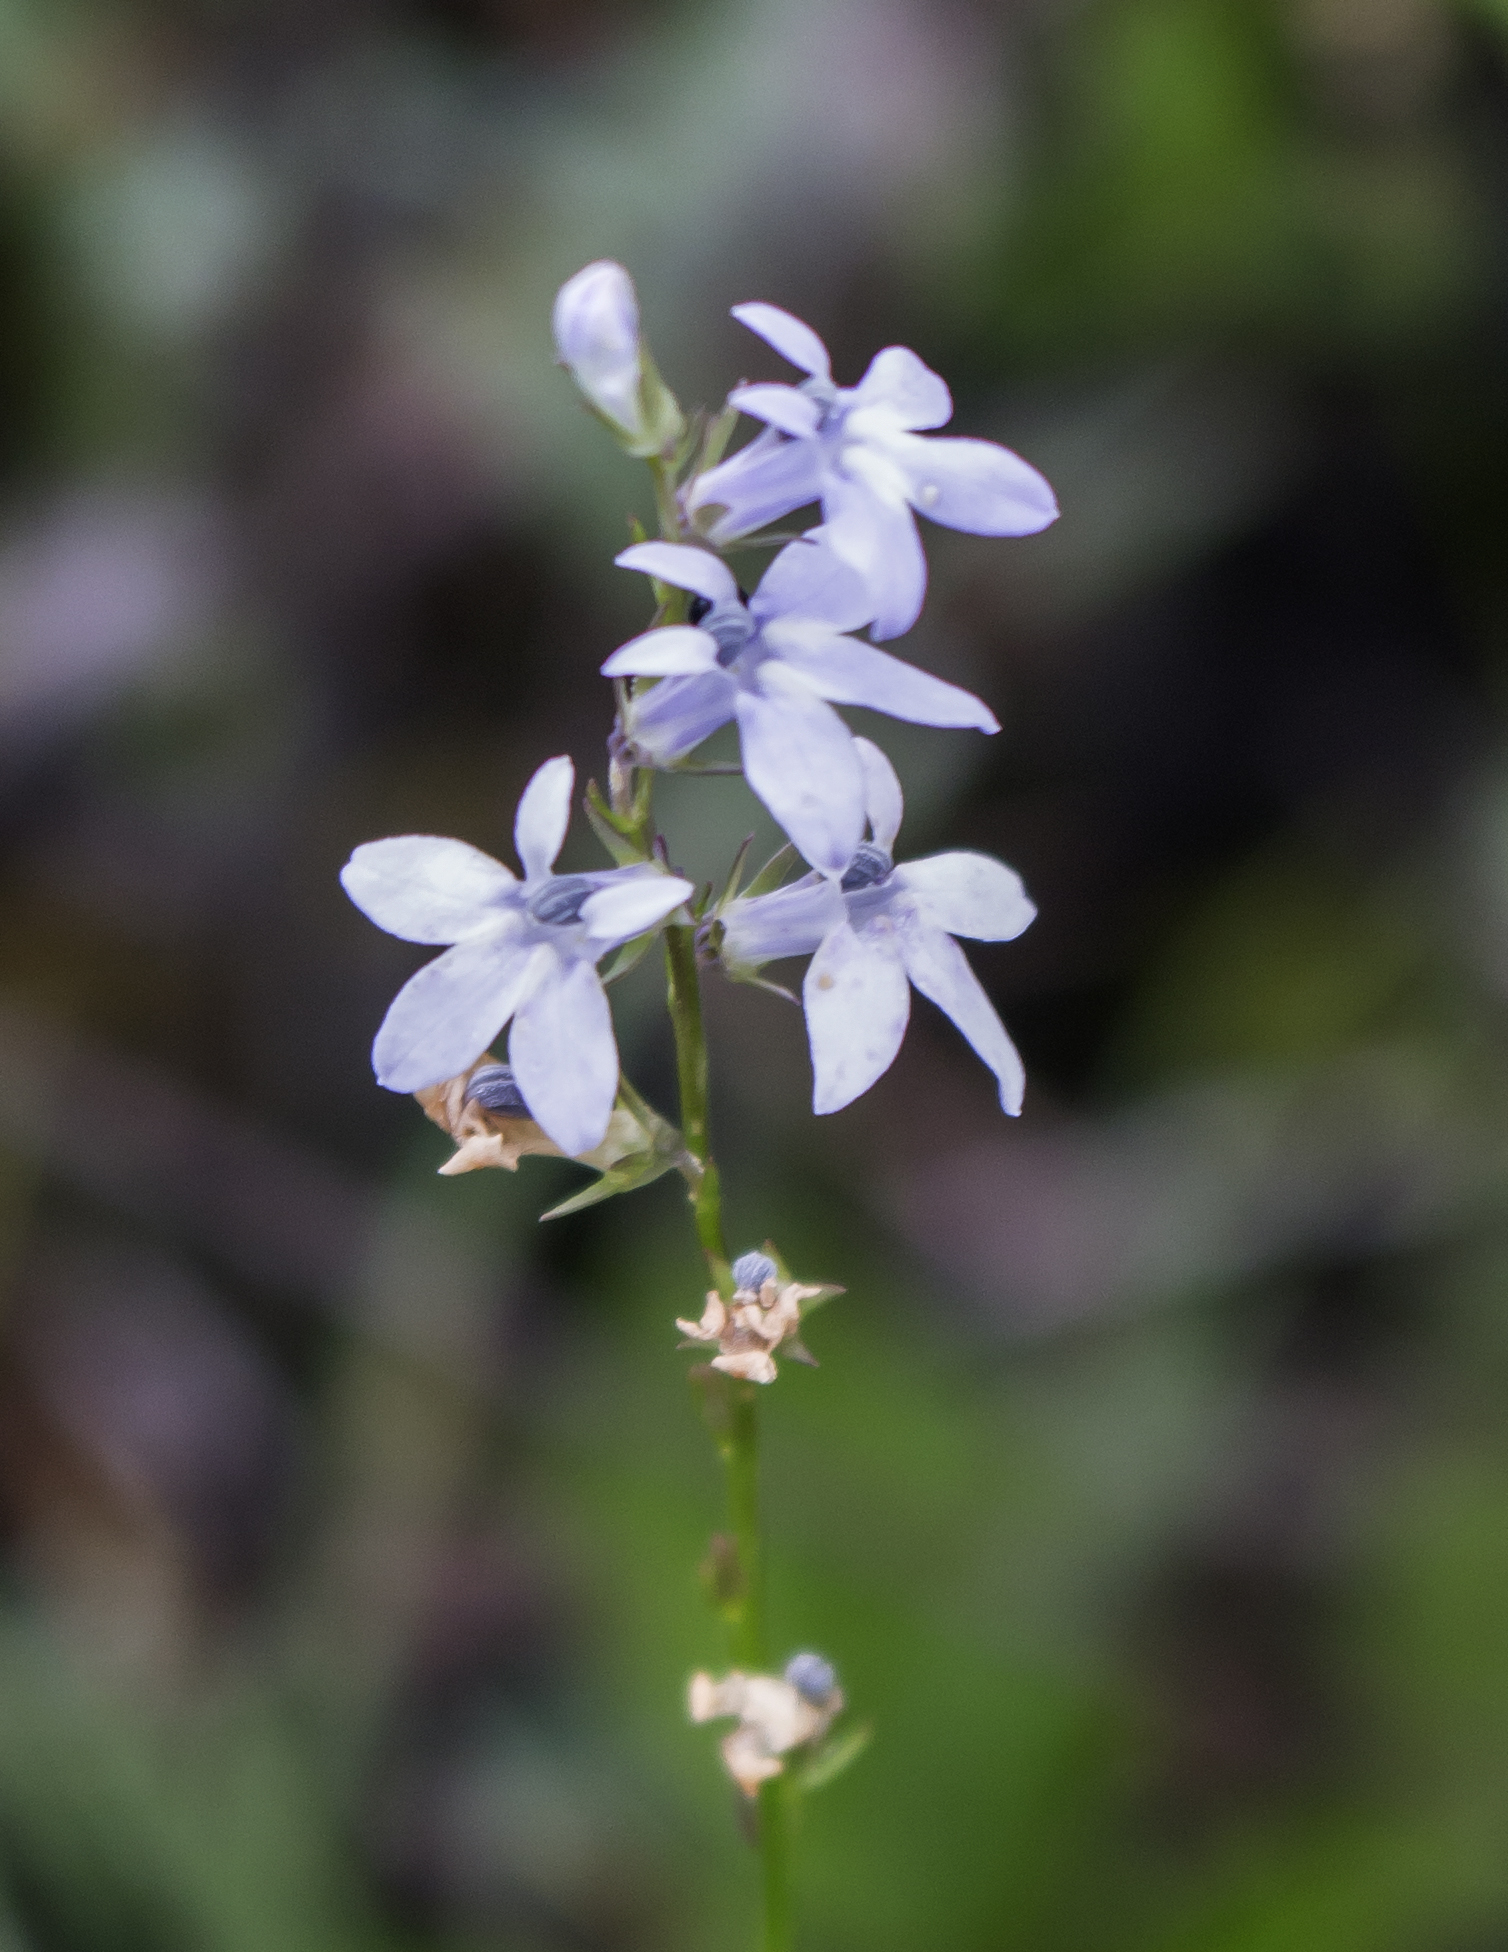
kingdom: Plantae
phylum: Tracheophyta
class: Magnoliopsida
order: Asterales
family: Campanulaceae
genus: Lobelia
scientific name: Lobelia spicata
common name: Pale-spike lobelia
